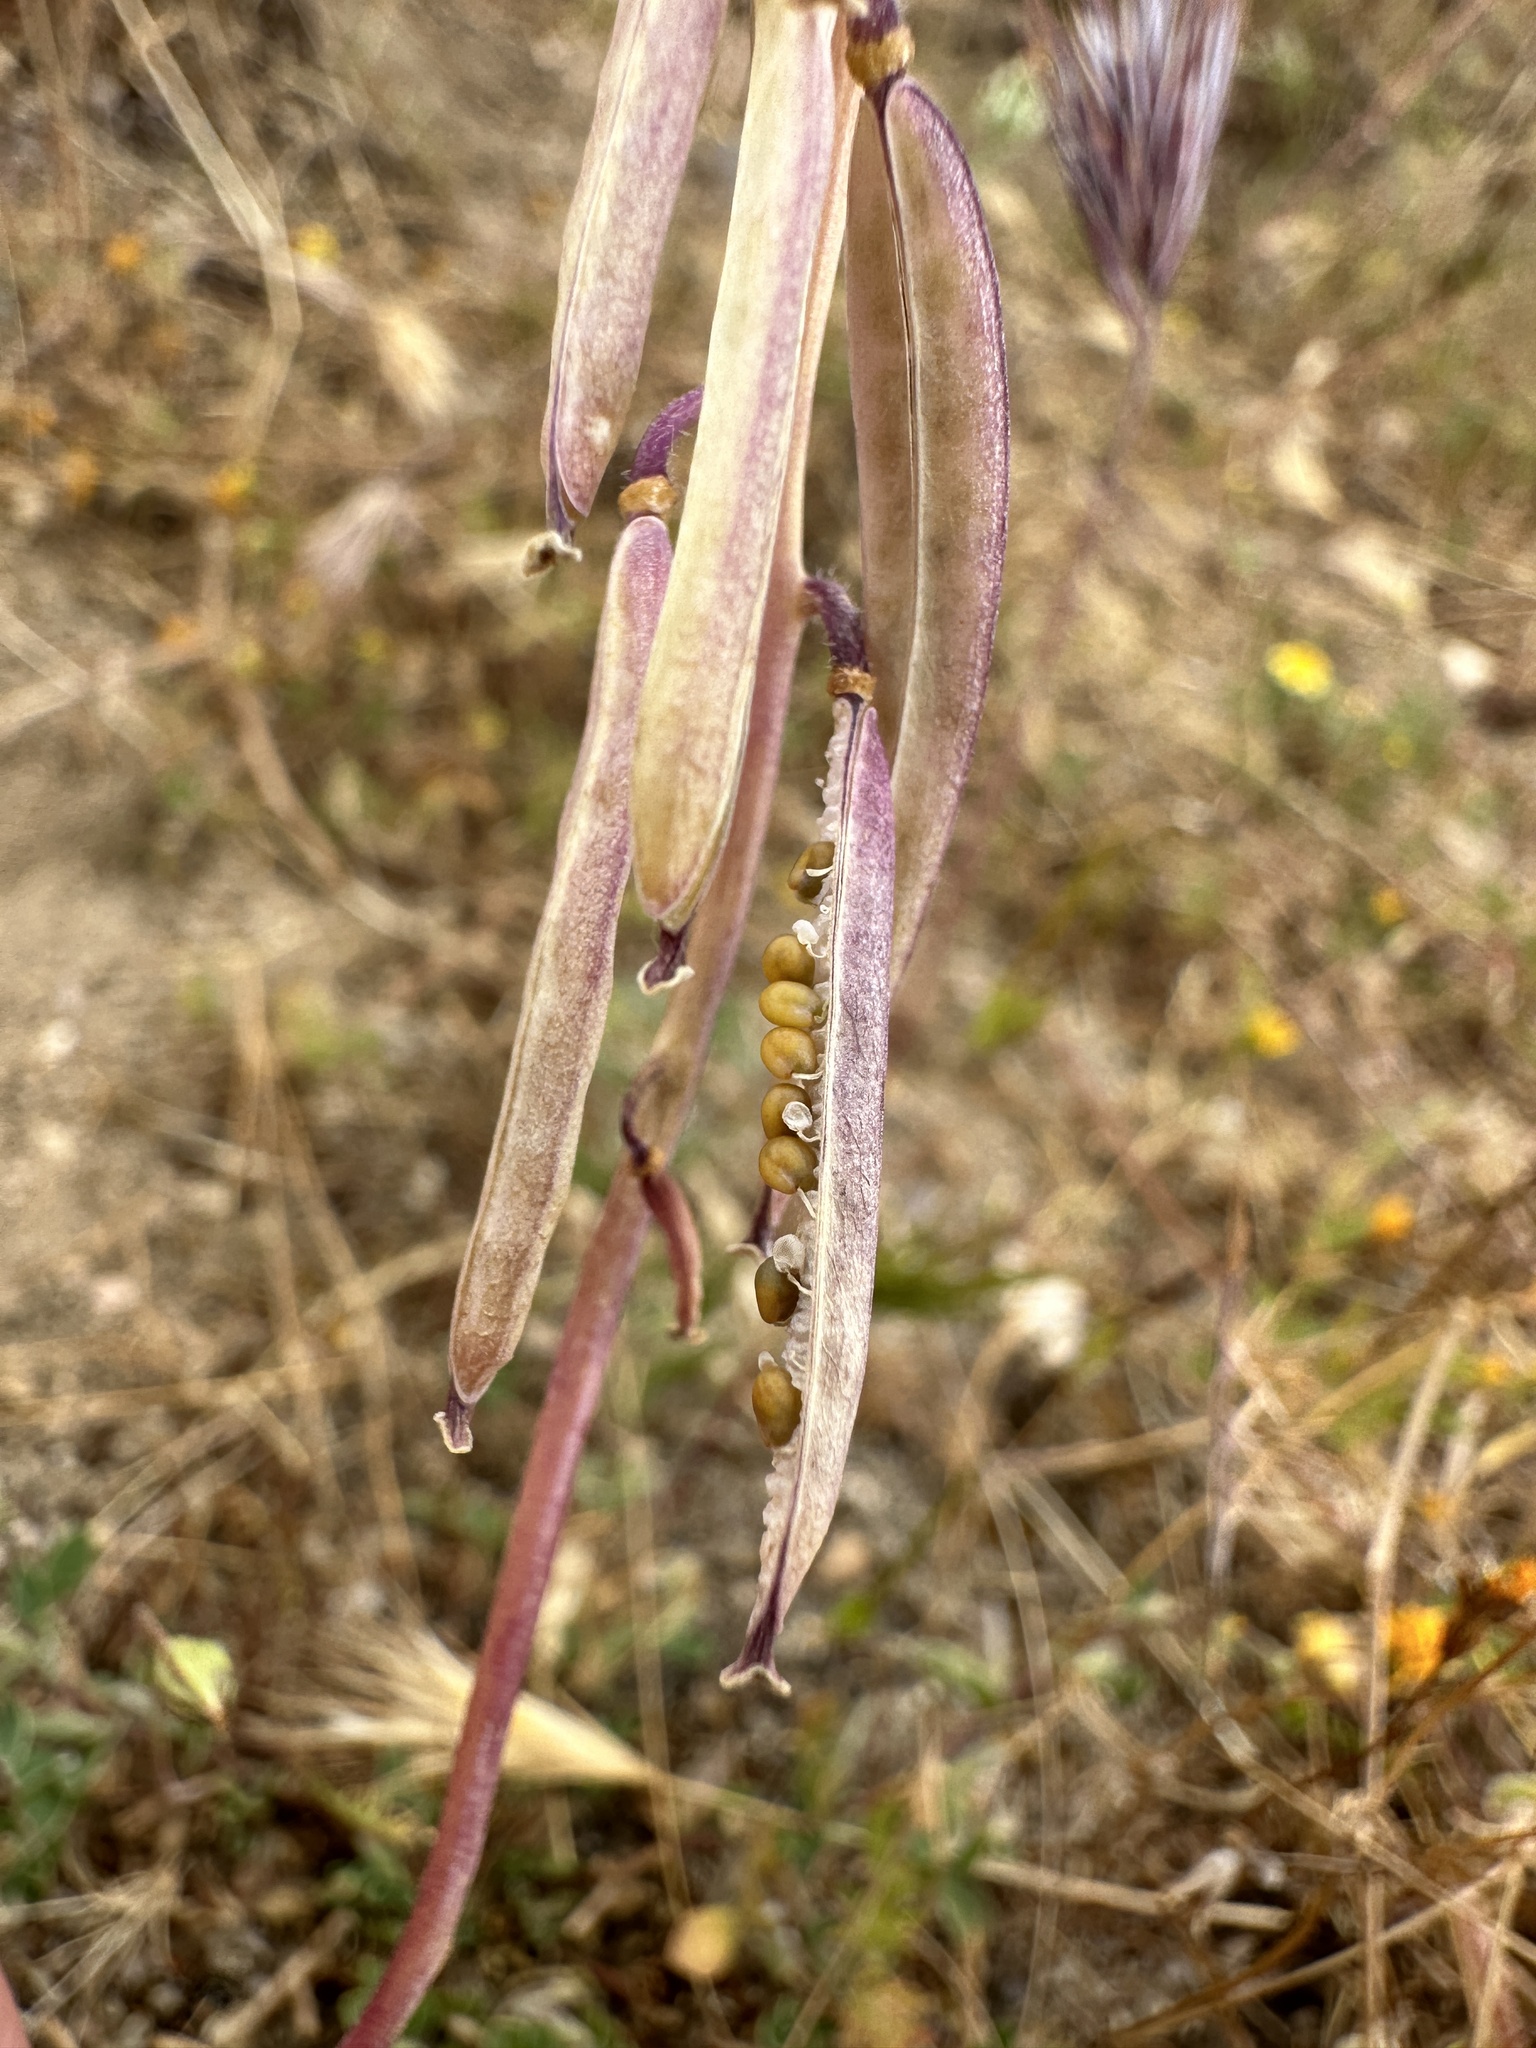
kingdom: Plantae
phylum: Tracheophyta
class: Magnoliopsida
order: Brassicales
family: Brassicaceae
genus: Streptanthus
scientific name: Streptanthus californicus
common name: California-jewel-flower
